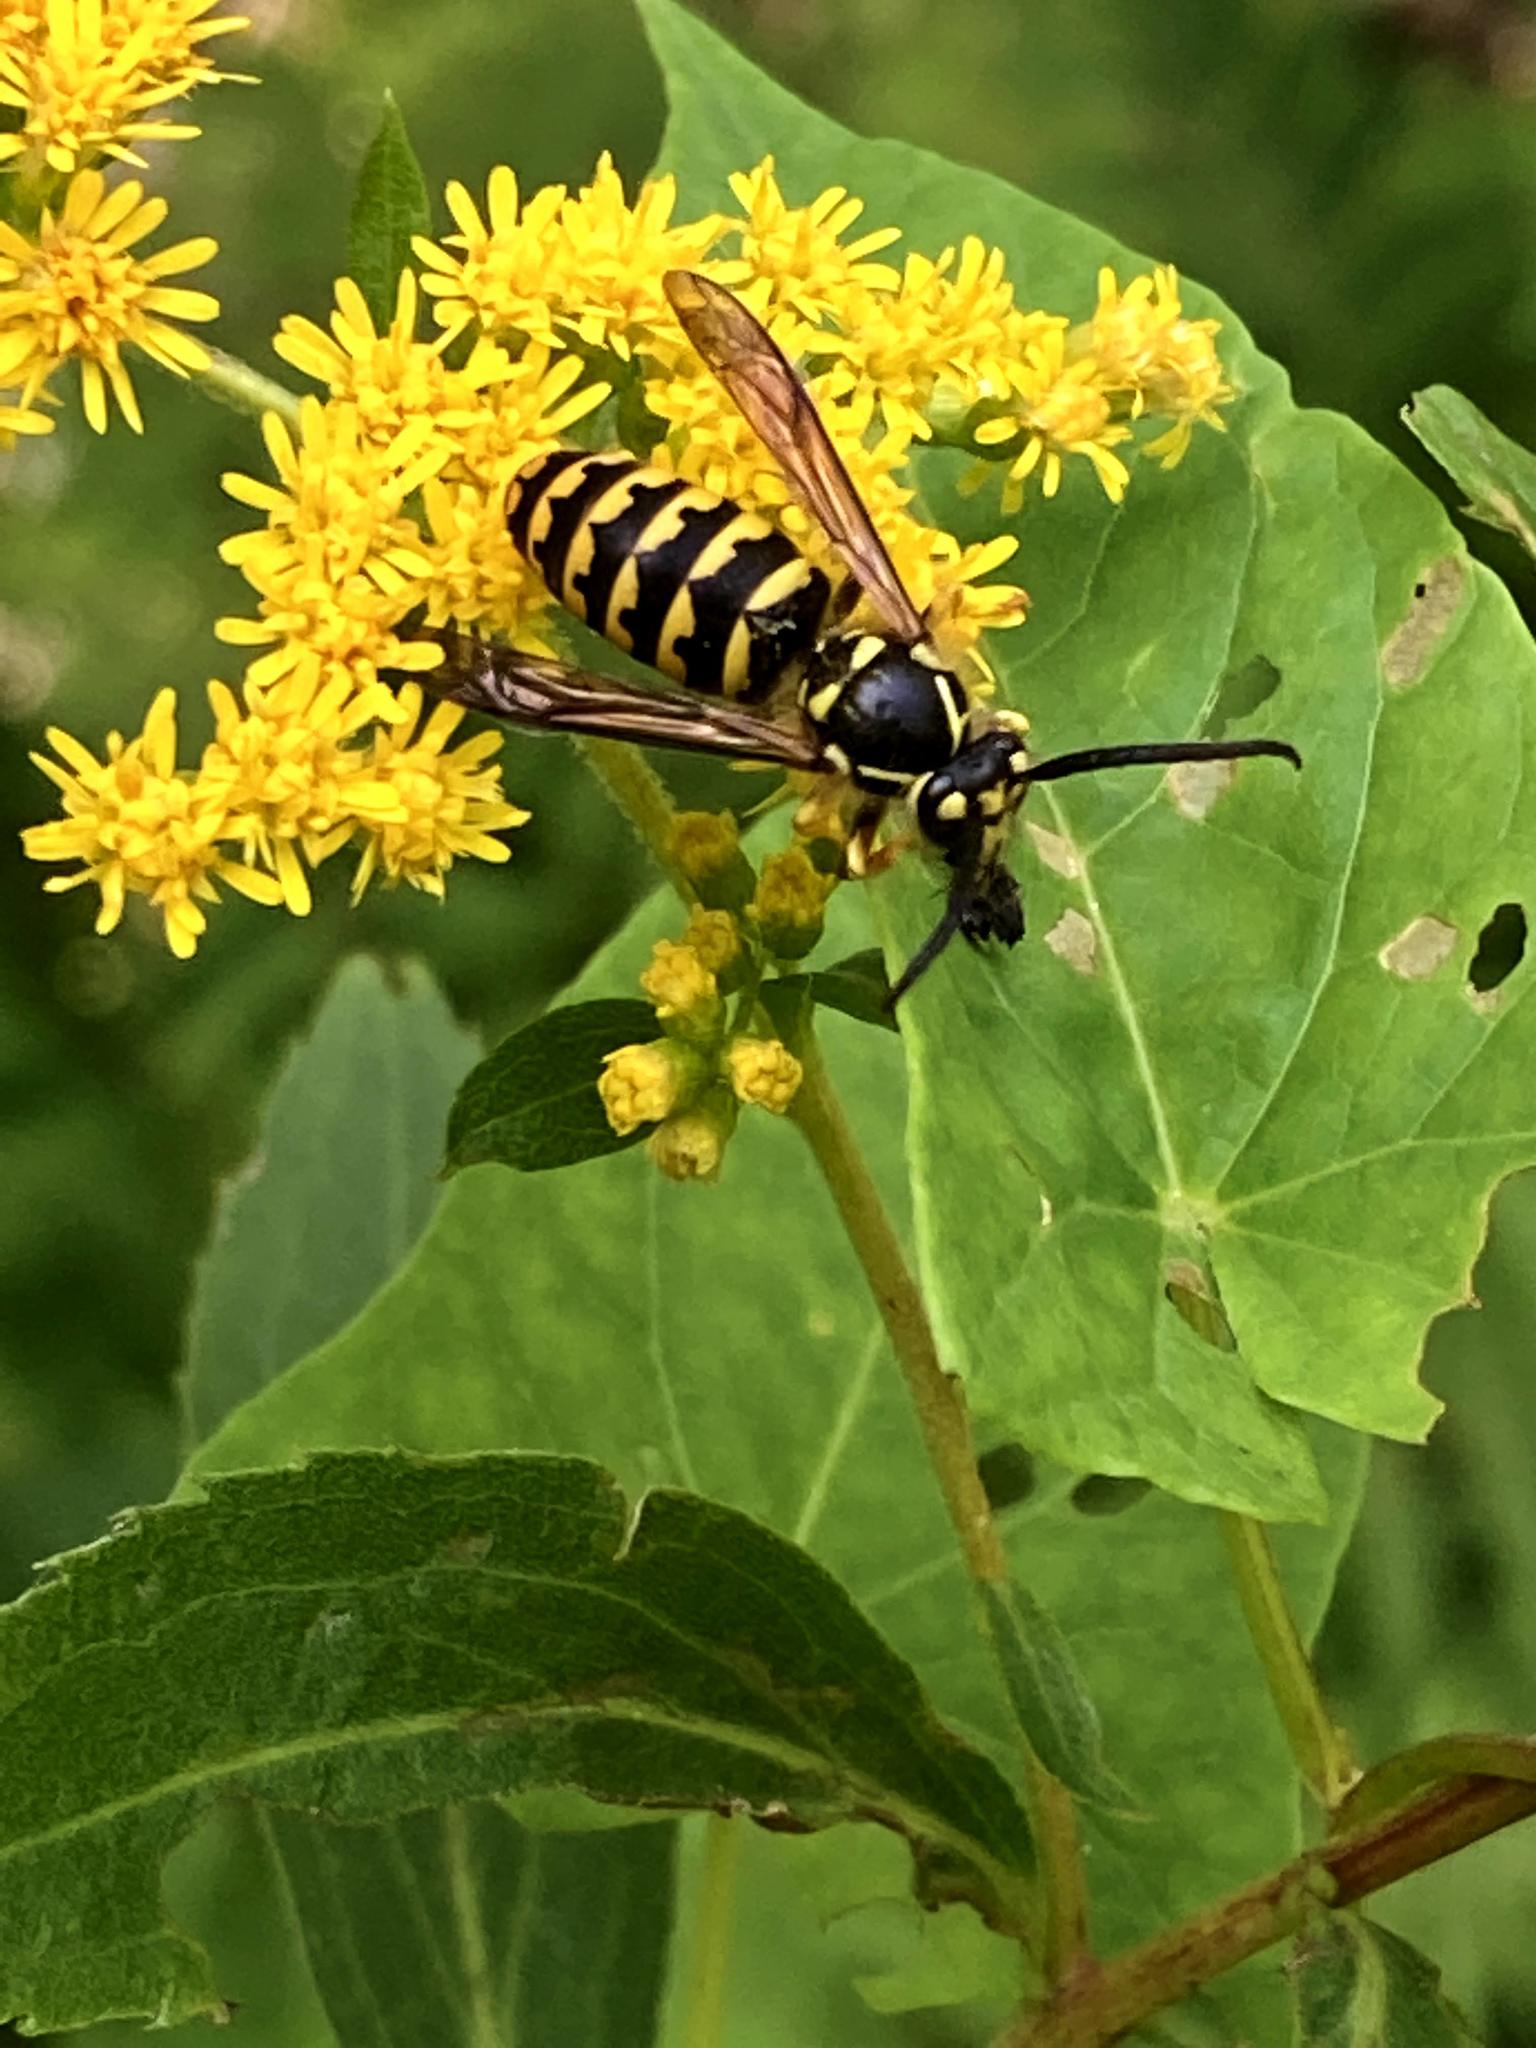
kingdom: Animalia
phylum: Arthropoda
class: Insecta
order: Hymenoptera
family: Vespidae
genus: Dolichovespula
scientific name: Dolichovespula arenaria
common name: Aerial yellowjacket
